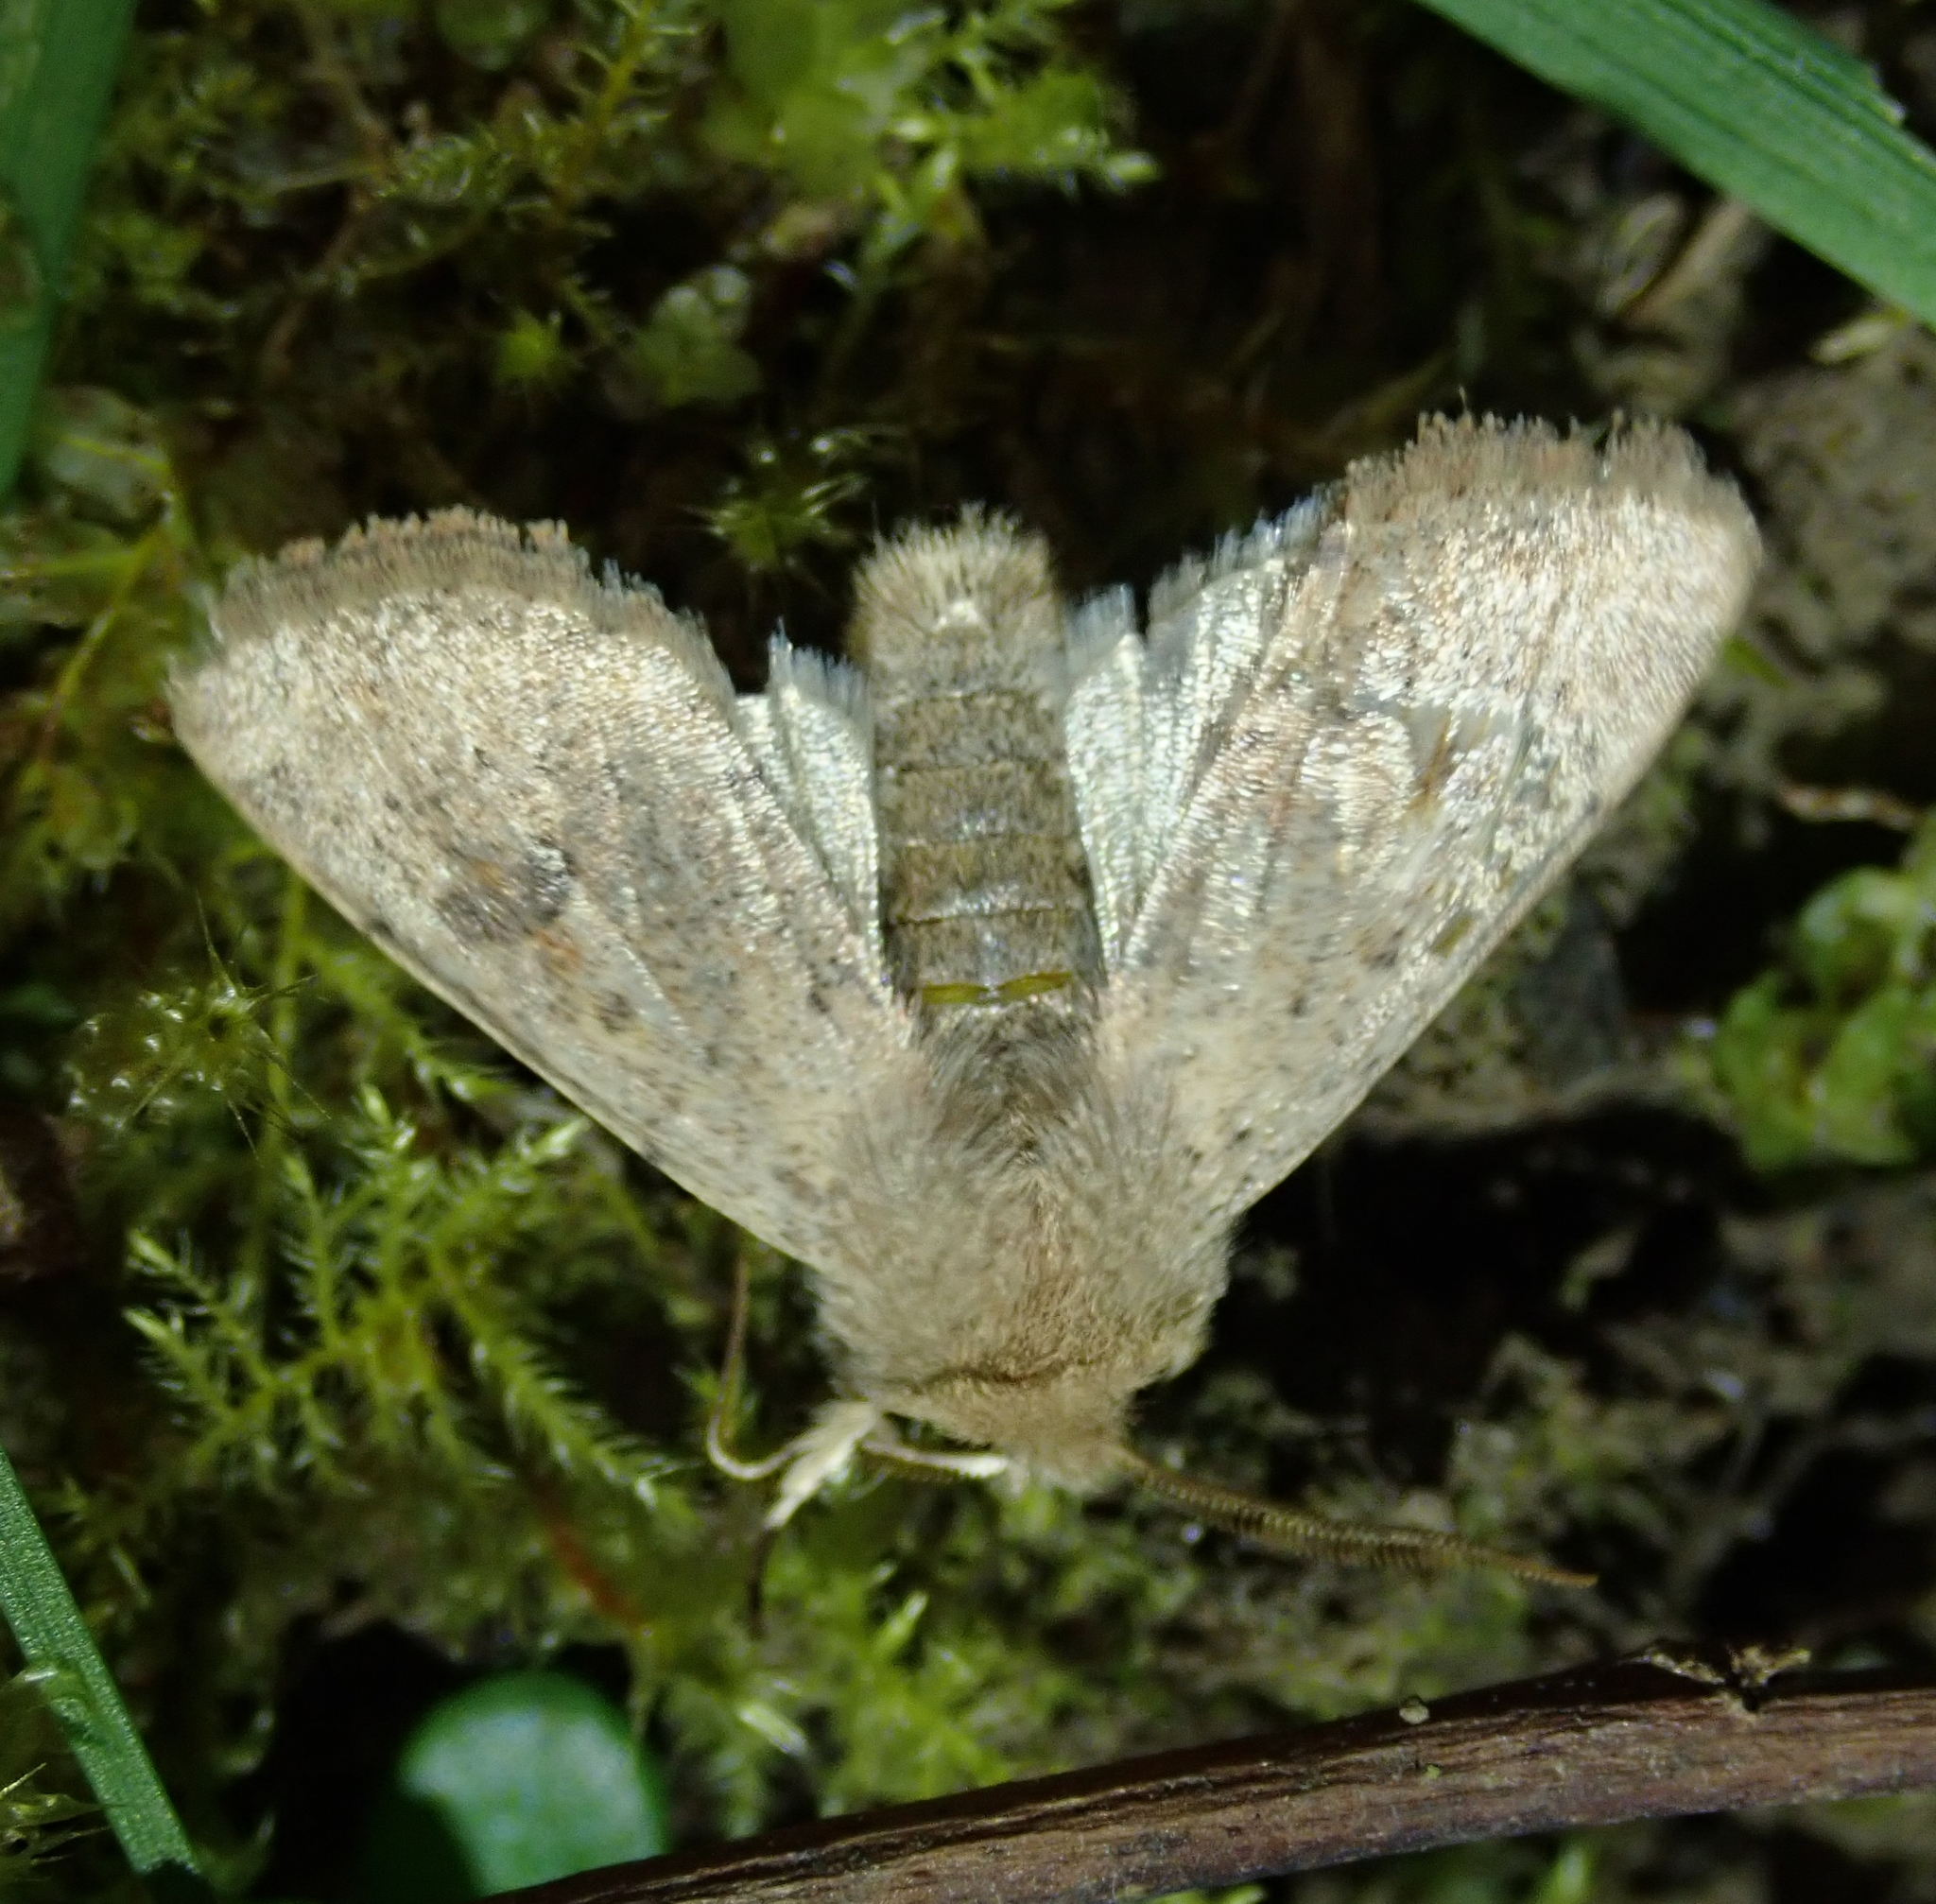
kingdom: Animalia
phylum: Arthropoda
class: Insecta
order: Lepidoptera
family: Noctuidae
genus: Orthosia
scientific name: Orthosia cruda
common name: Small quaker
